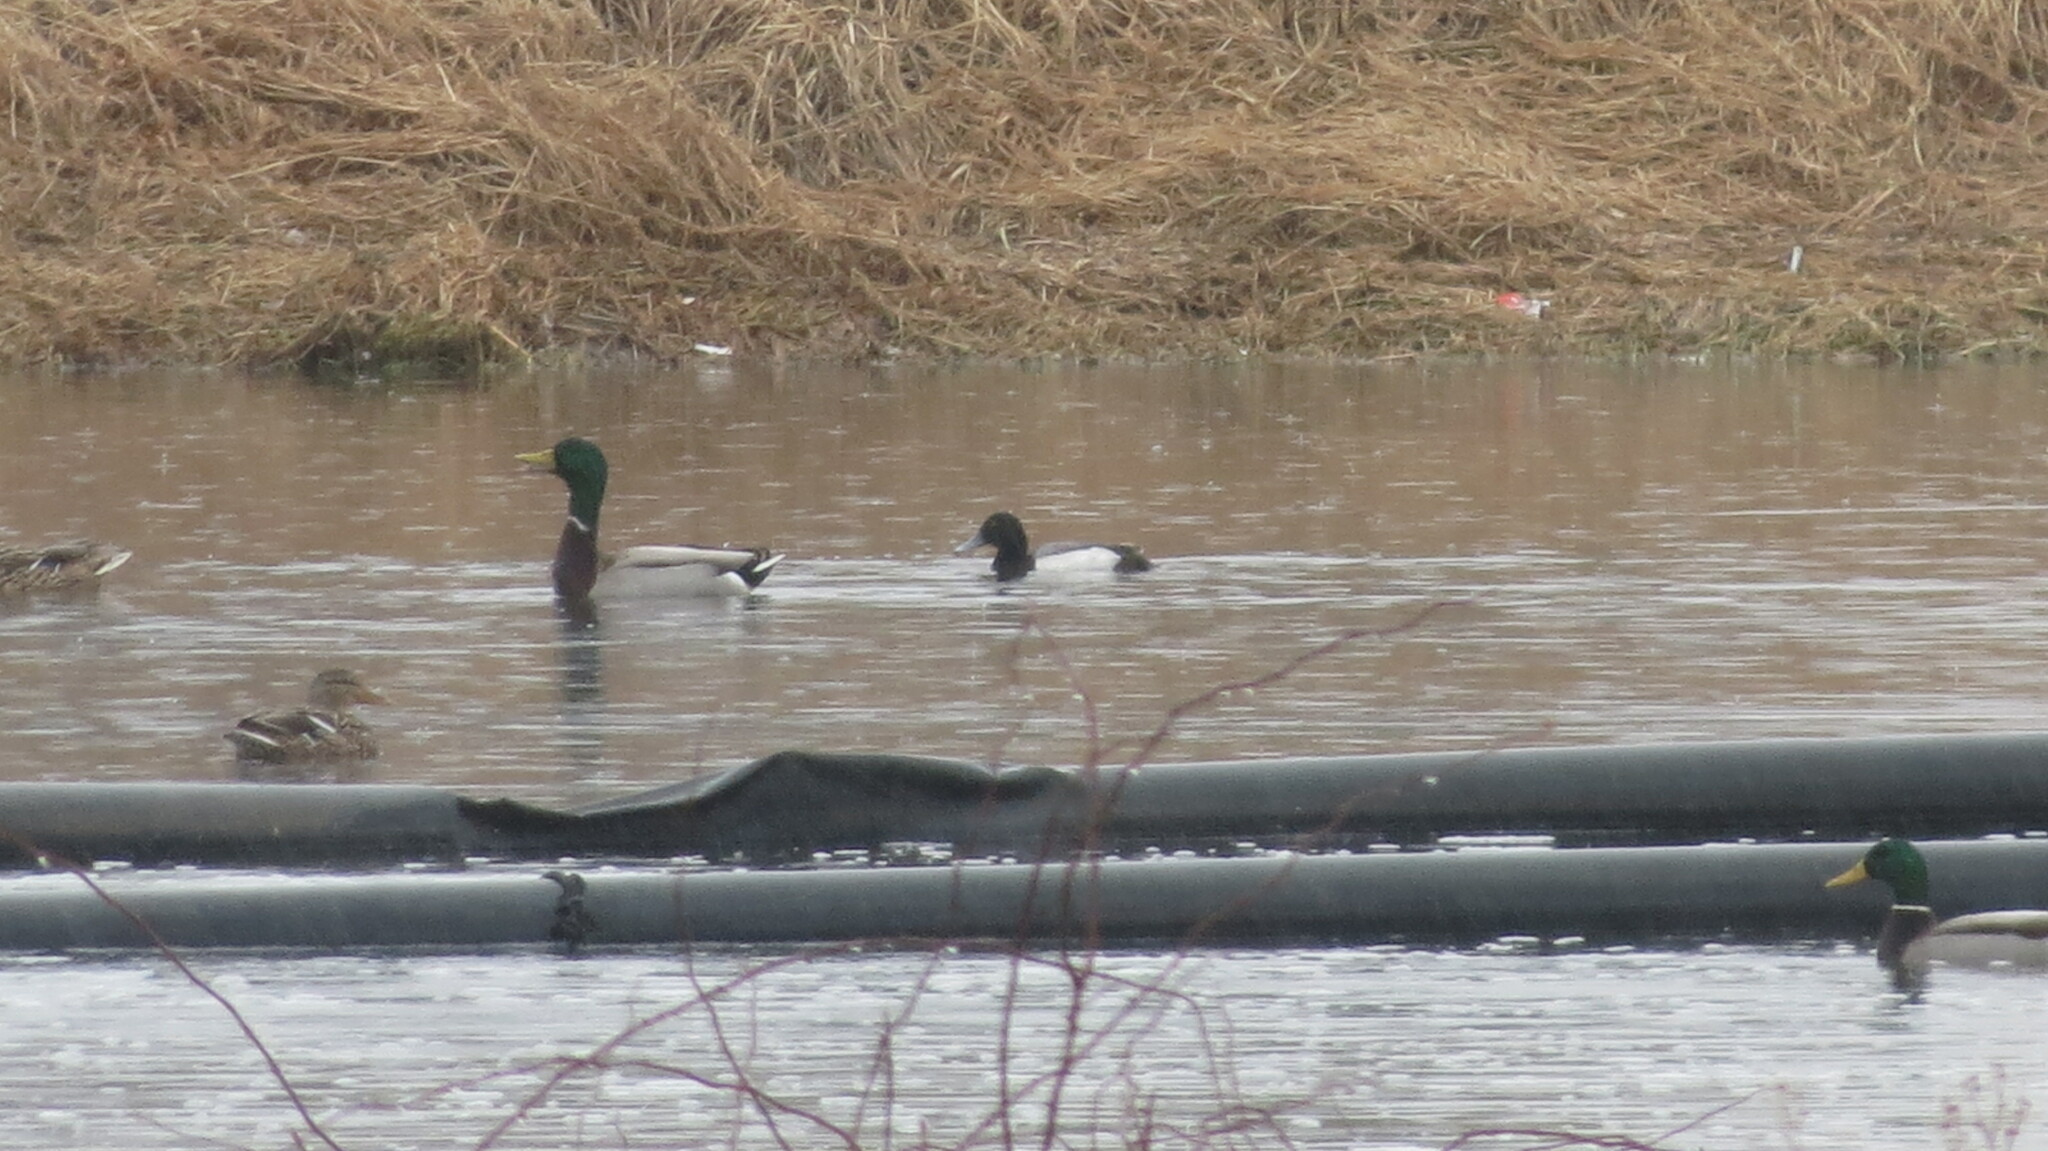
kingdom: Animalia
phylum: Chordata
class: Aves
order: Anseriformes
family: Anatidae
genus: Aythya
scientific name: Aythya marila
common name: Greater scaup
